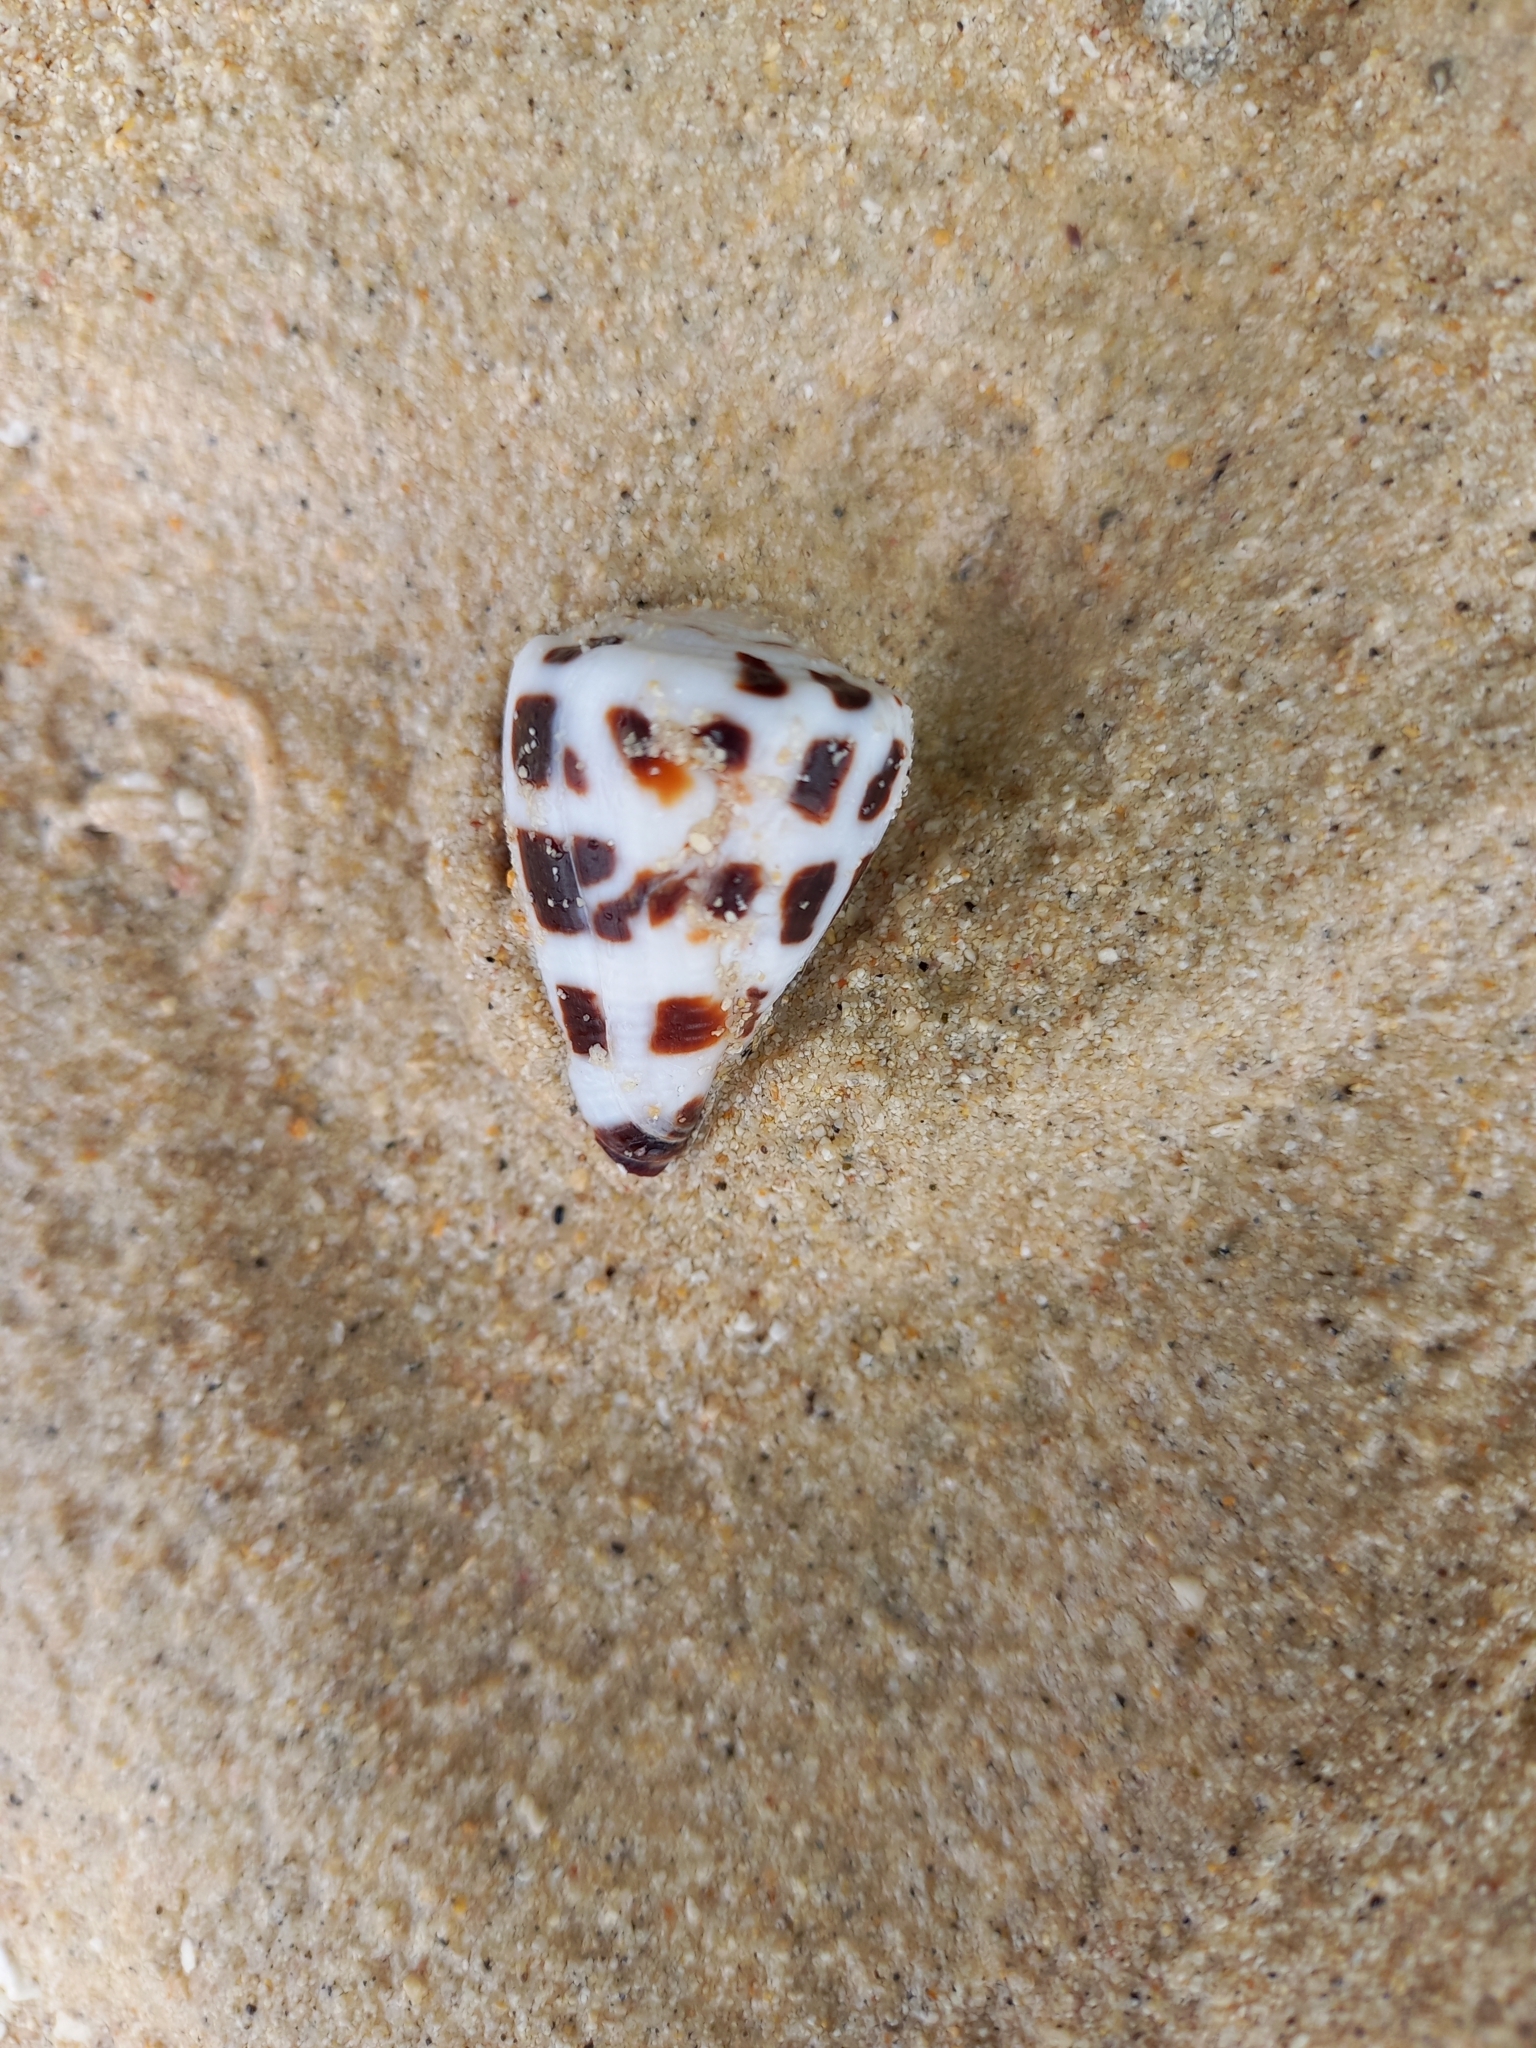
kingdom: Animalia
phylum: Mollusca
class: Gastropoda
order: Neogastropoda
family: Conidae
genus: Conus
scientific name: Conus ebraeus
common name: Hebrew cone
